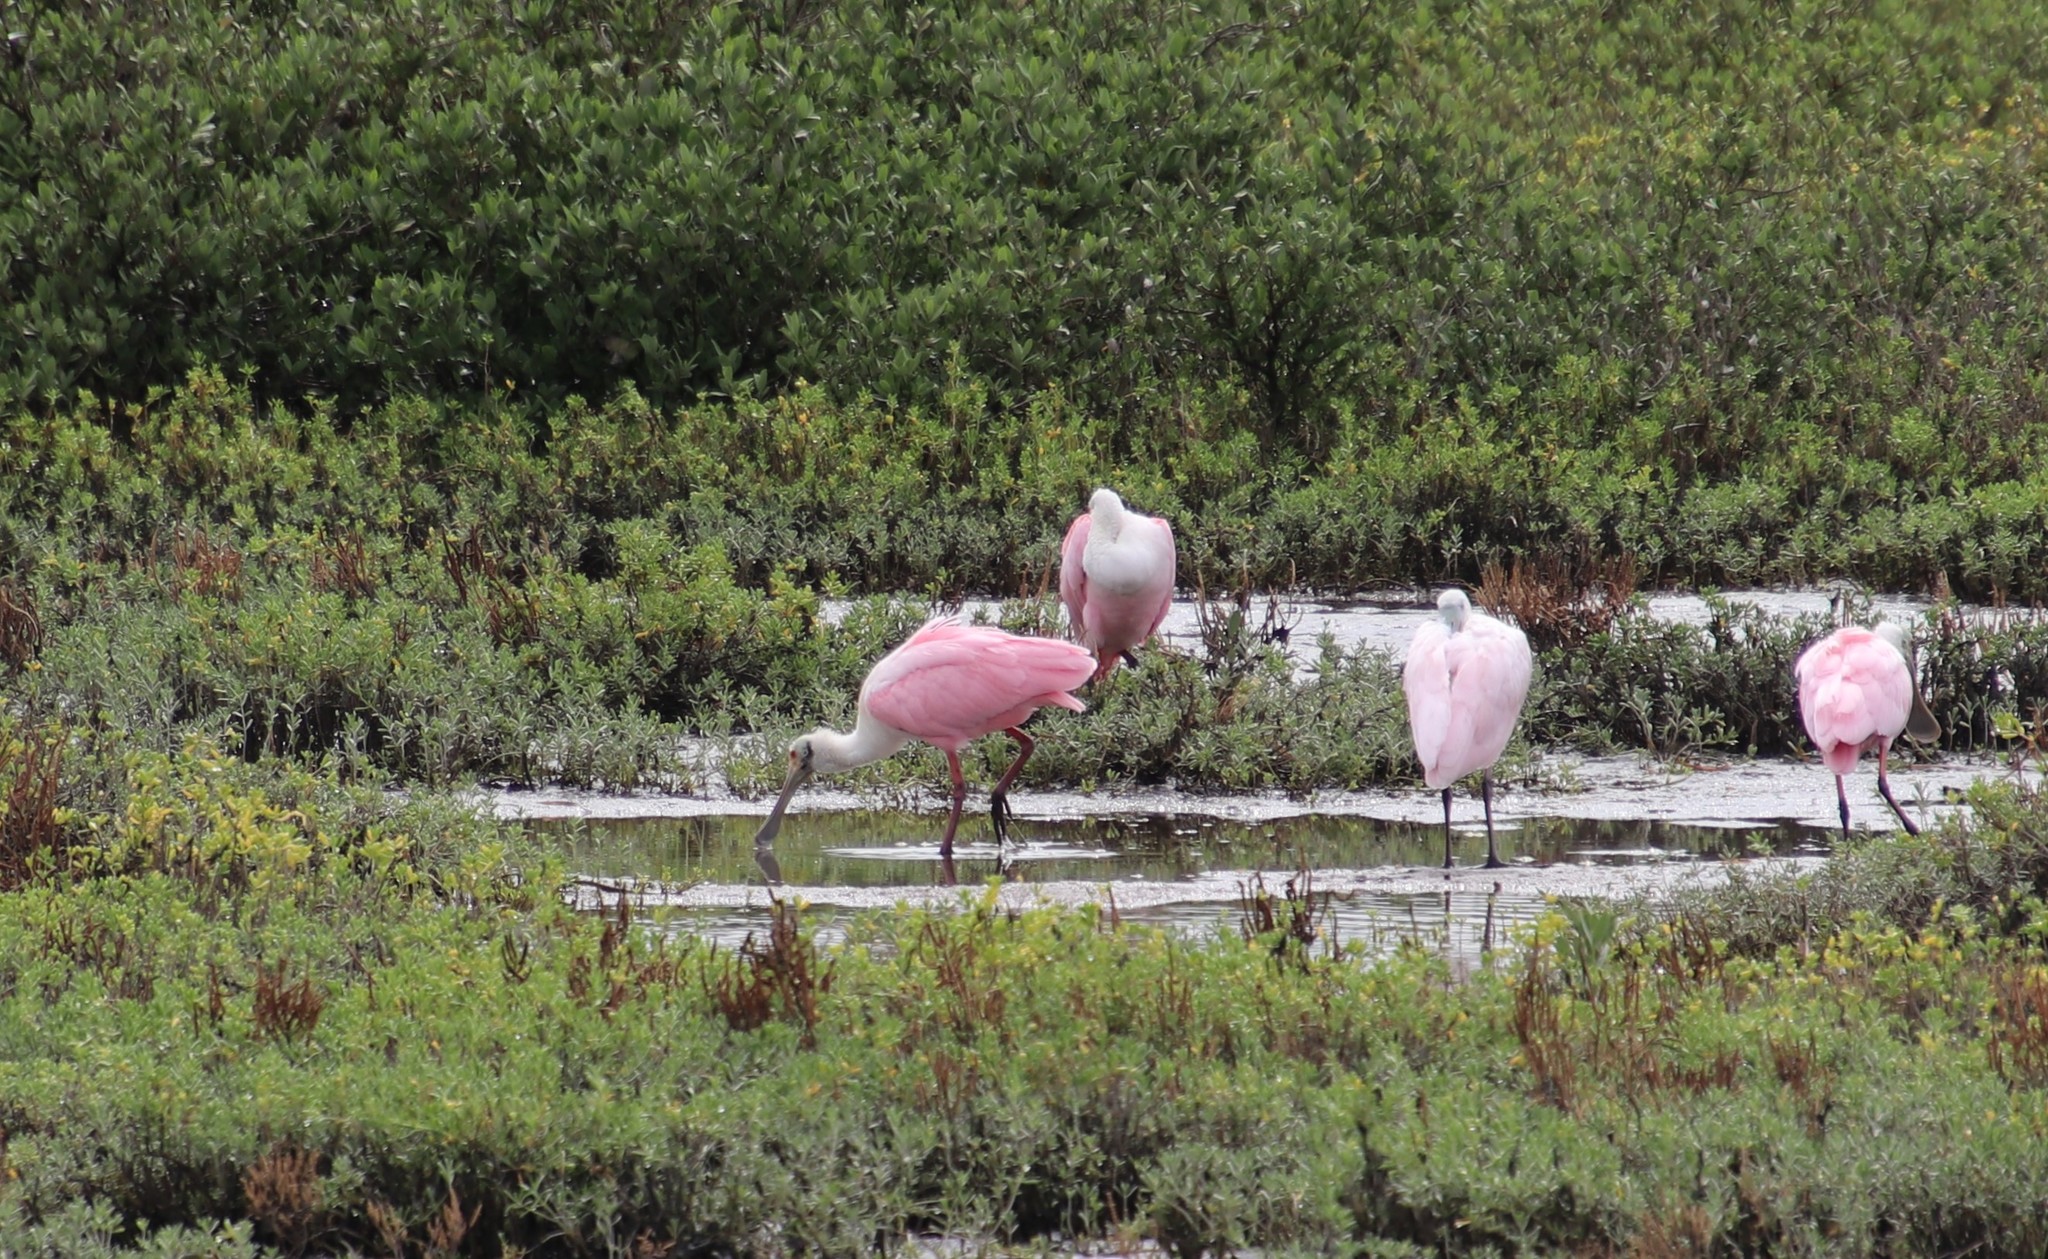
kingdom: Animalia
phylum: Chordata
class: Aves
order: Pelecaniformes
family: Threskiornithidae
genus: Platalea
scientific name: Platalea ajaja
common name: Roseate spoonbill
